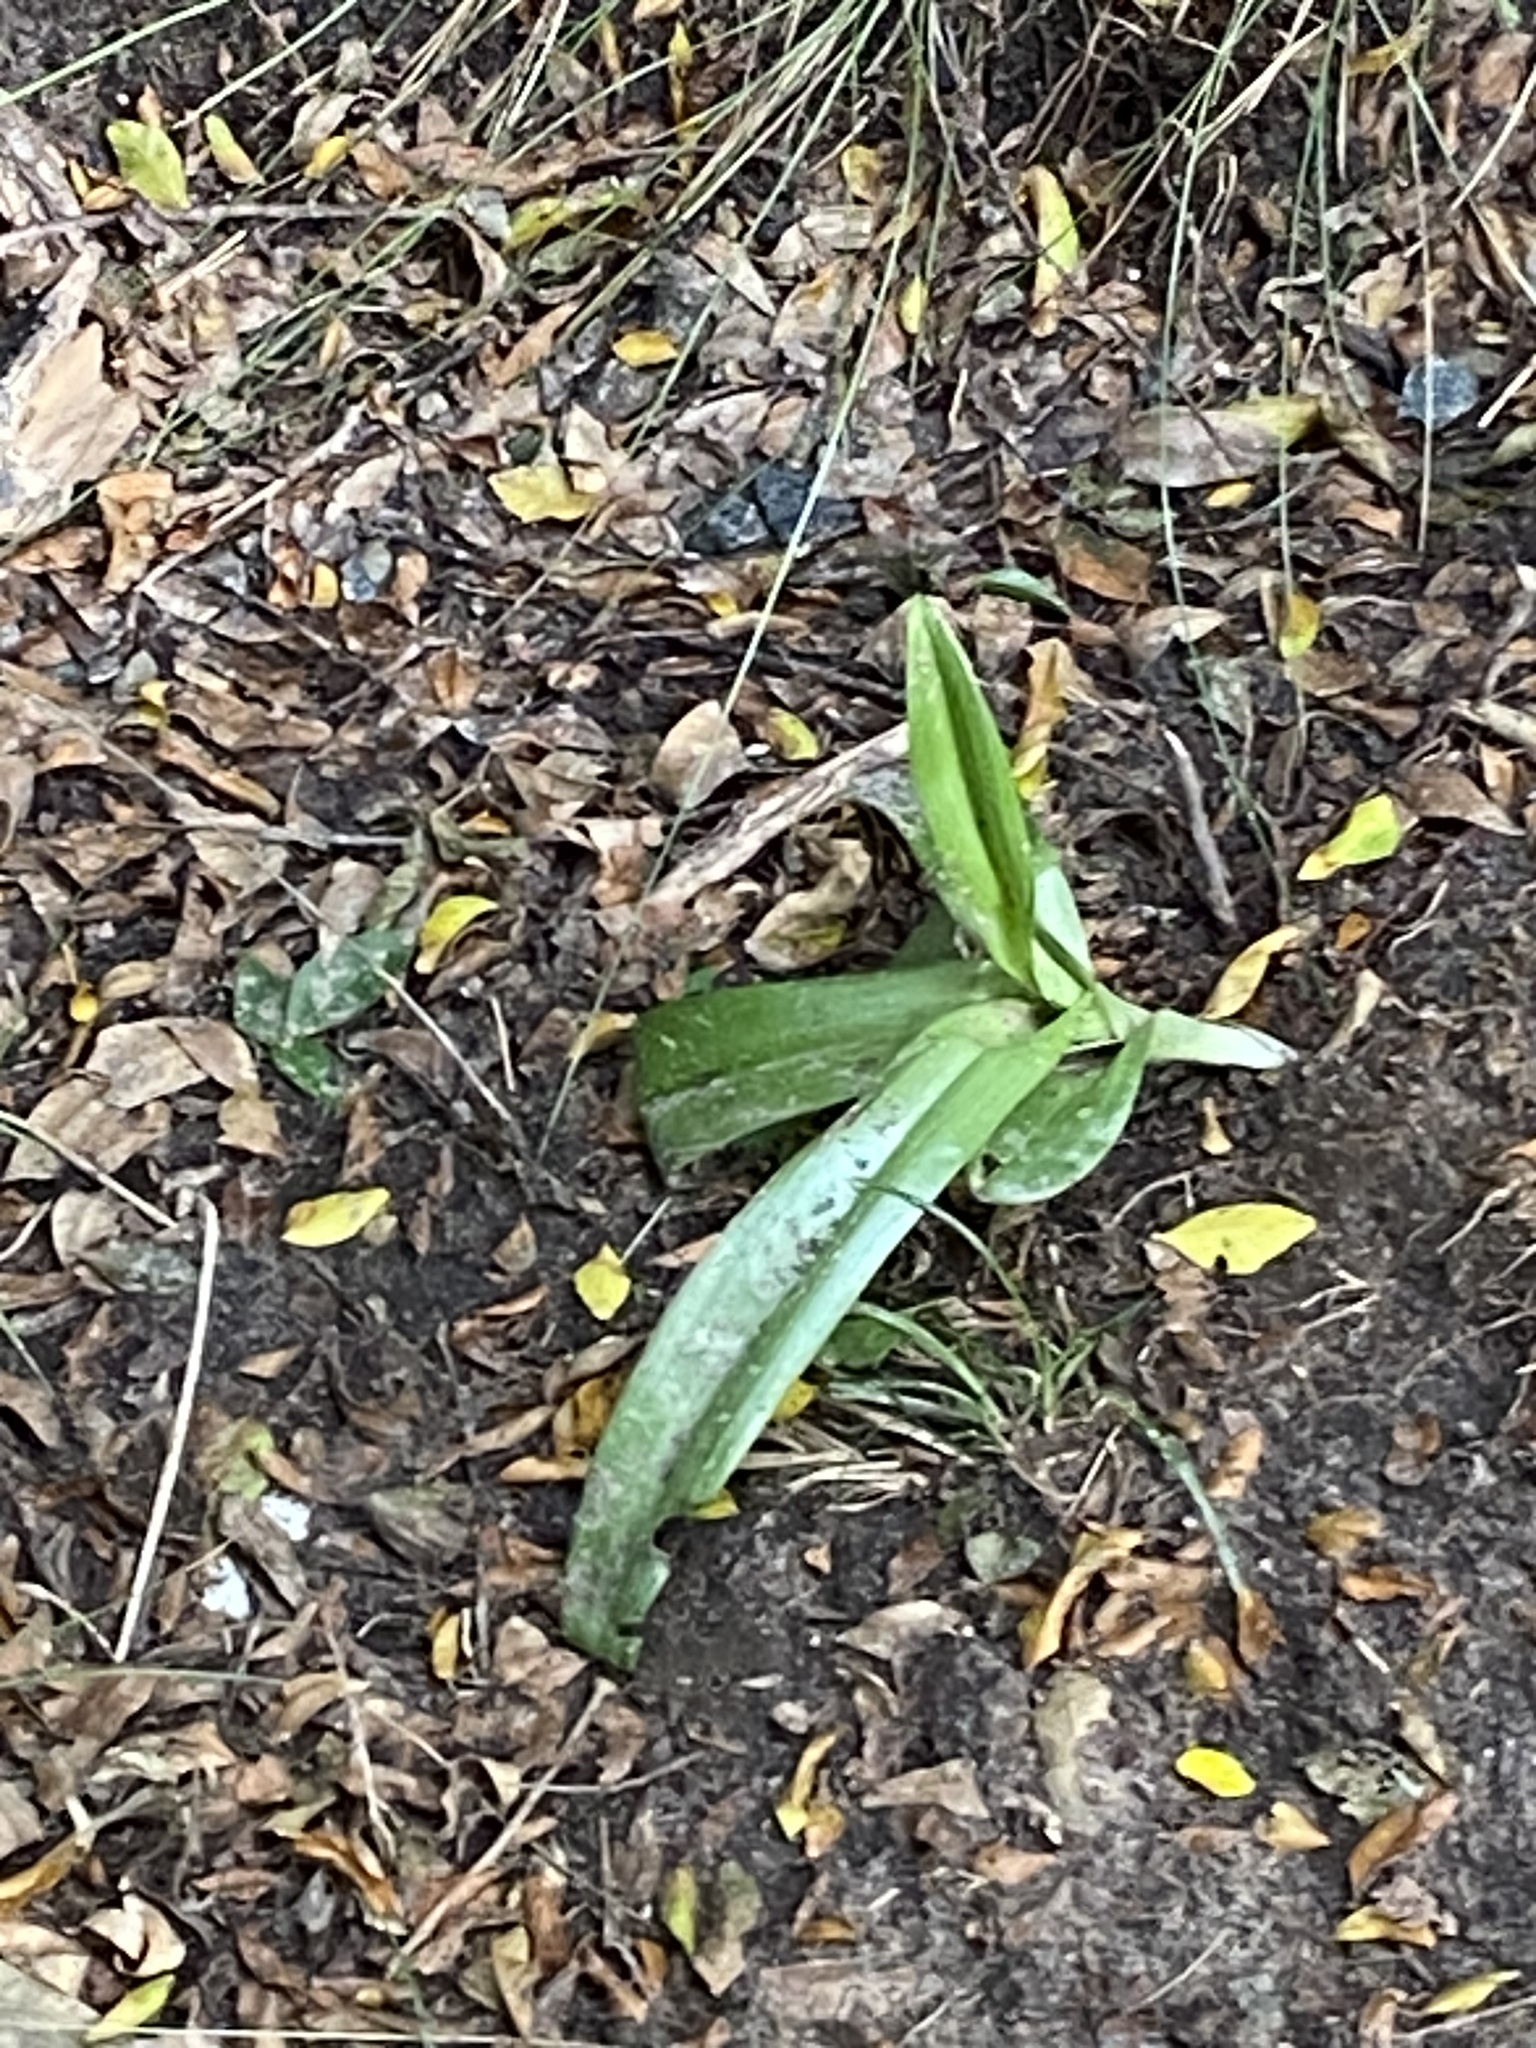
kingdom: Plantae
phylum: Tracheophyta
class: Liliopsida
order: Asparagales
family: Orchidaceae
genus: Chloraea
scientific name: Chloraea membranacea
